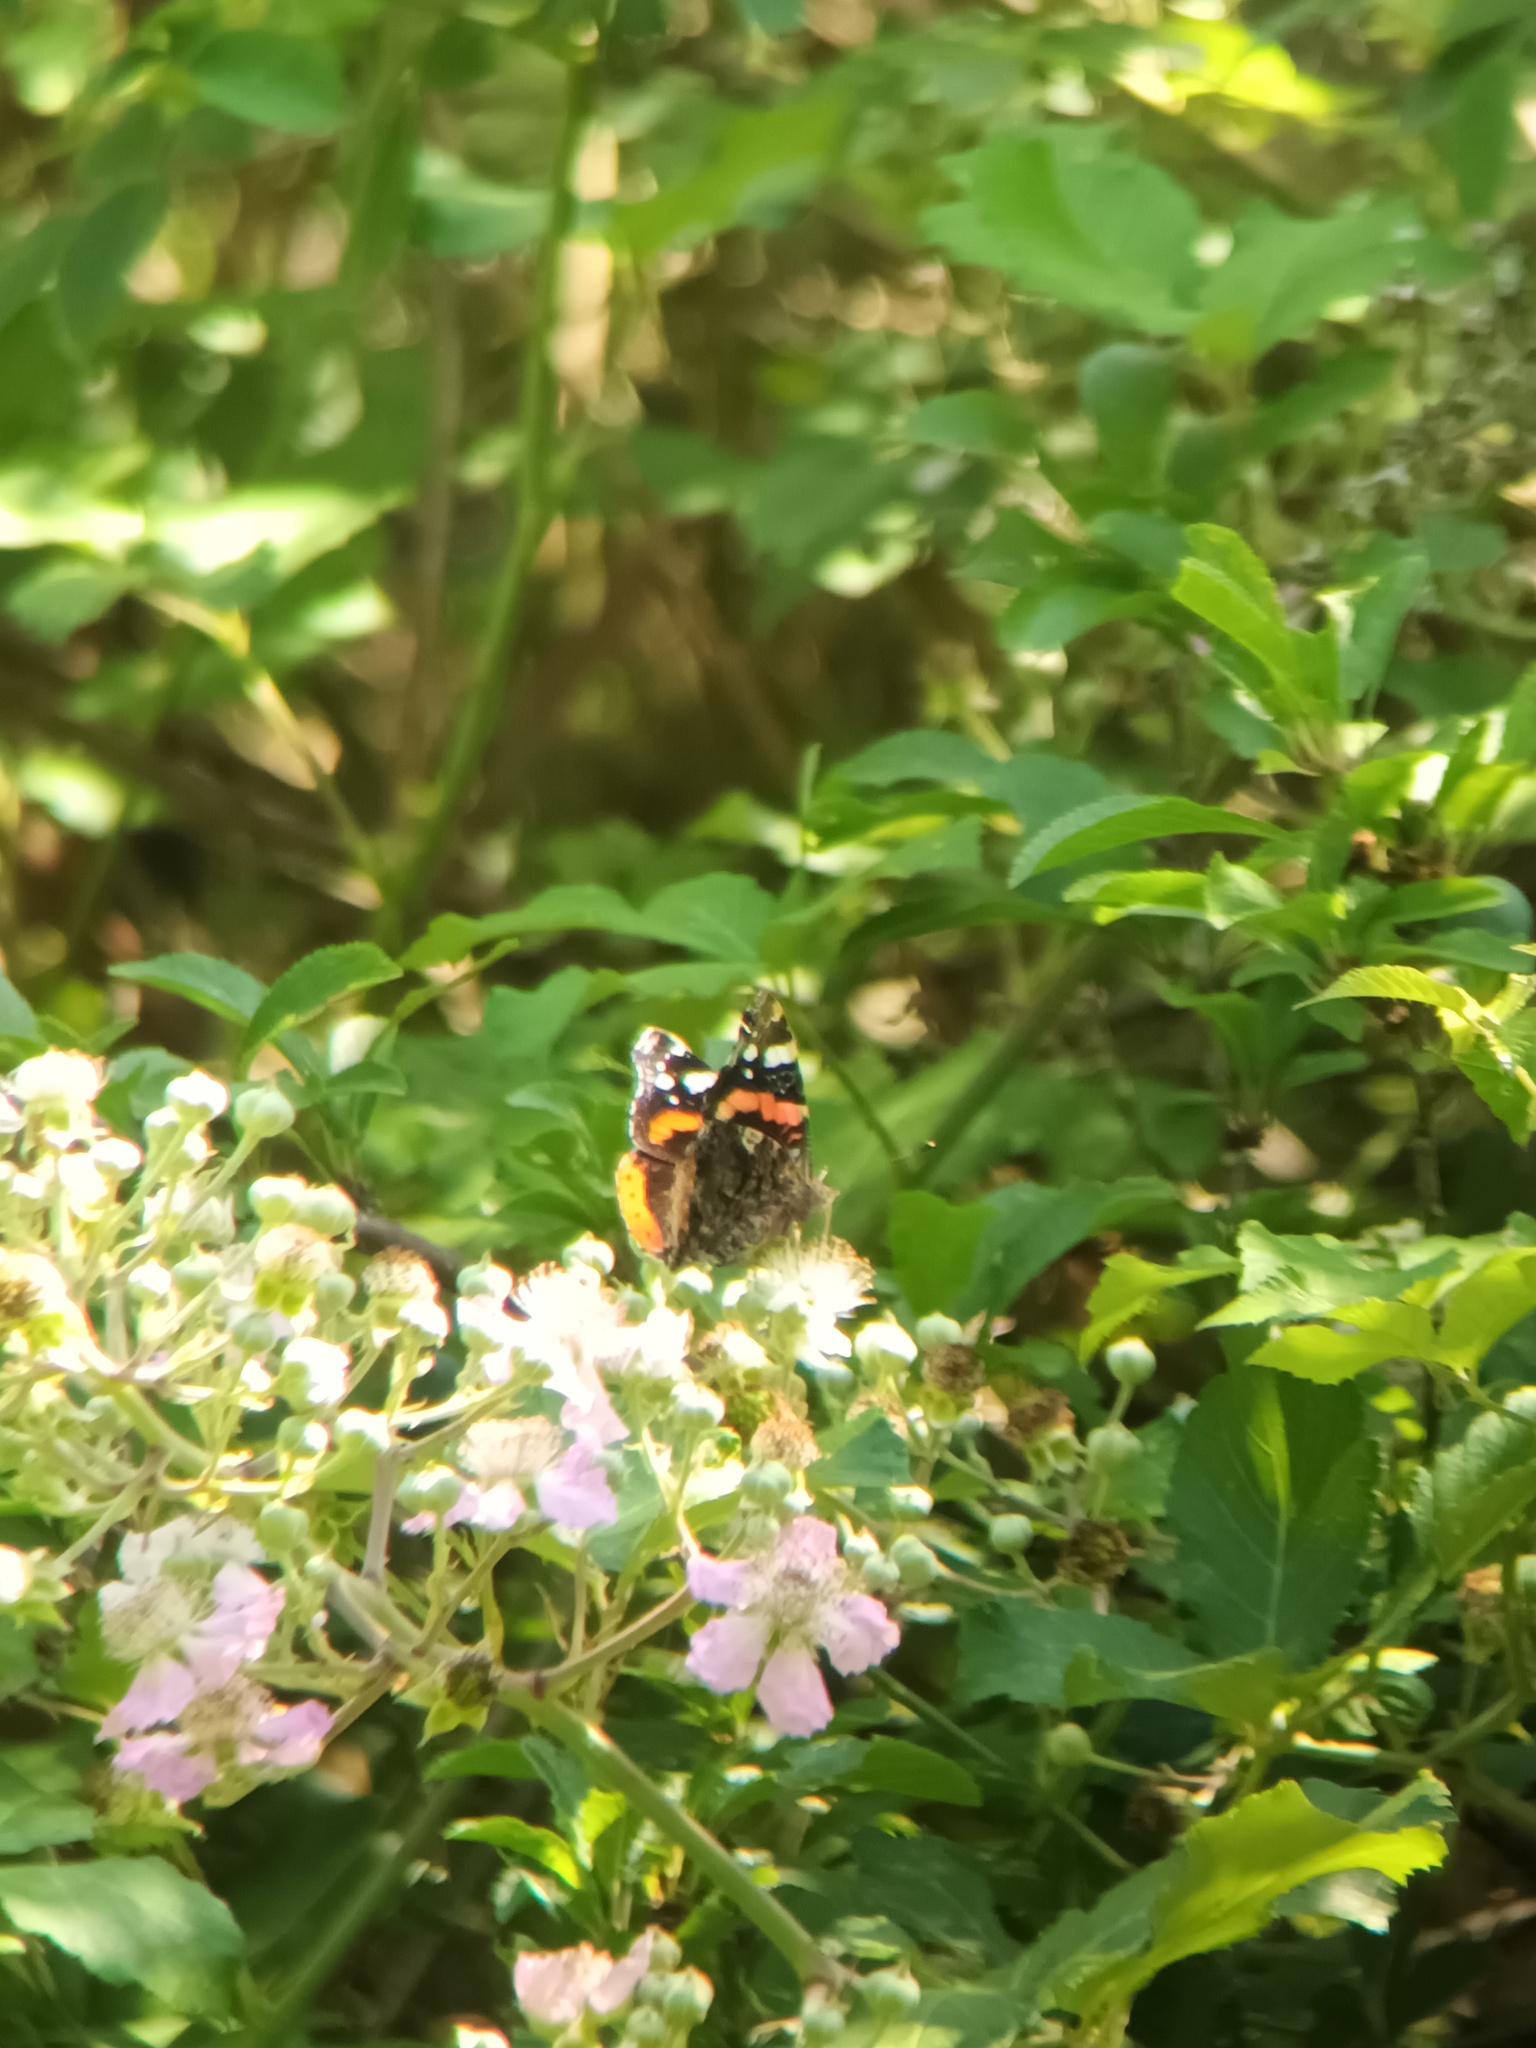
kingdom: Animalia
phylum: Arthropoda
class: Insecta
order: Lepidoptera
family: Nymphalidae
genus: Vanessa
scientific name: Vanessa atalanta
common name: Red admiral
